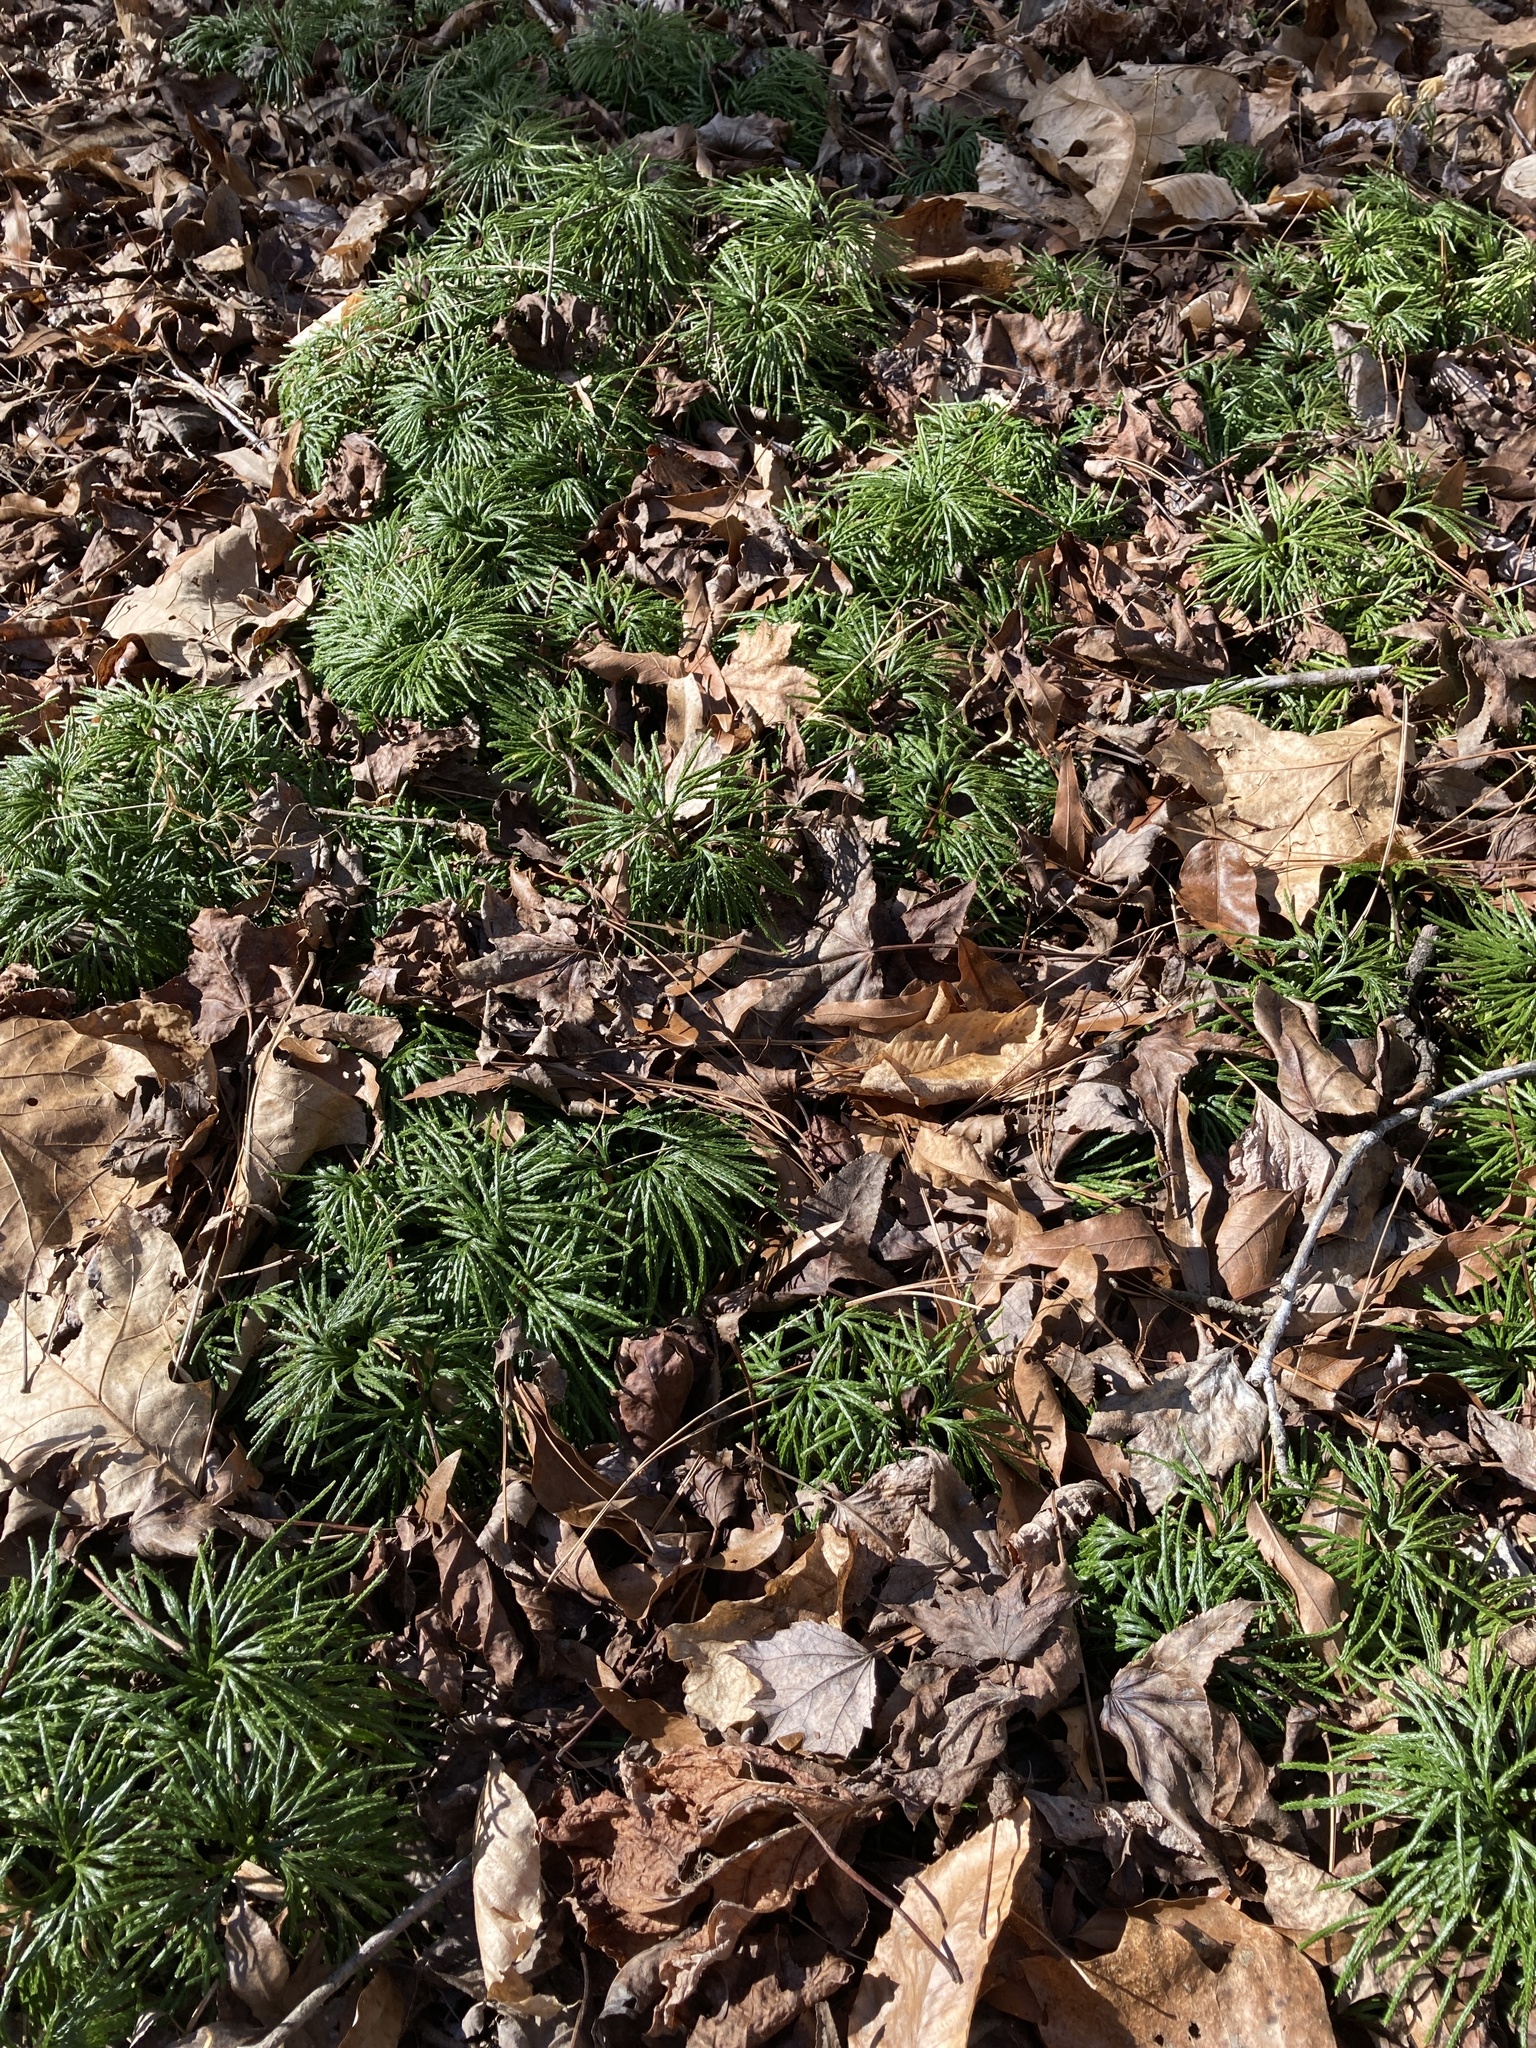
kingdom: Plantae
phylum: Tracheophyta
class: Lycopodiopsida
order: Lycopodiales
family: Lycopodiaceae
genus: Diphasiastrum
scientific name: Diphasiastrum digitatum
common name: Southern running-pine
